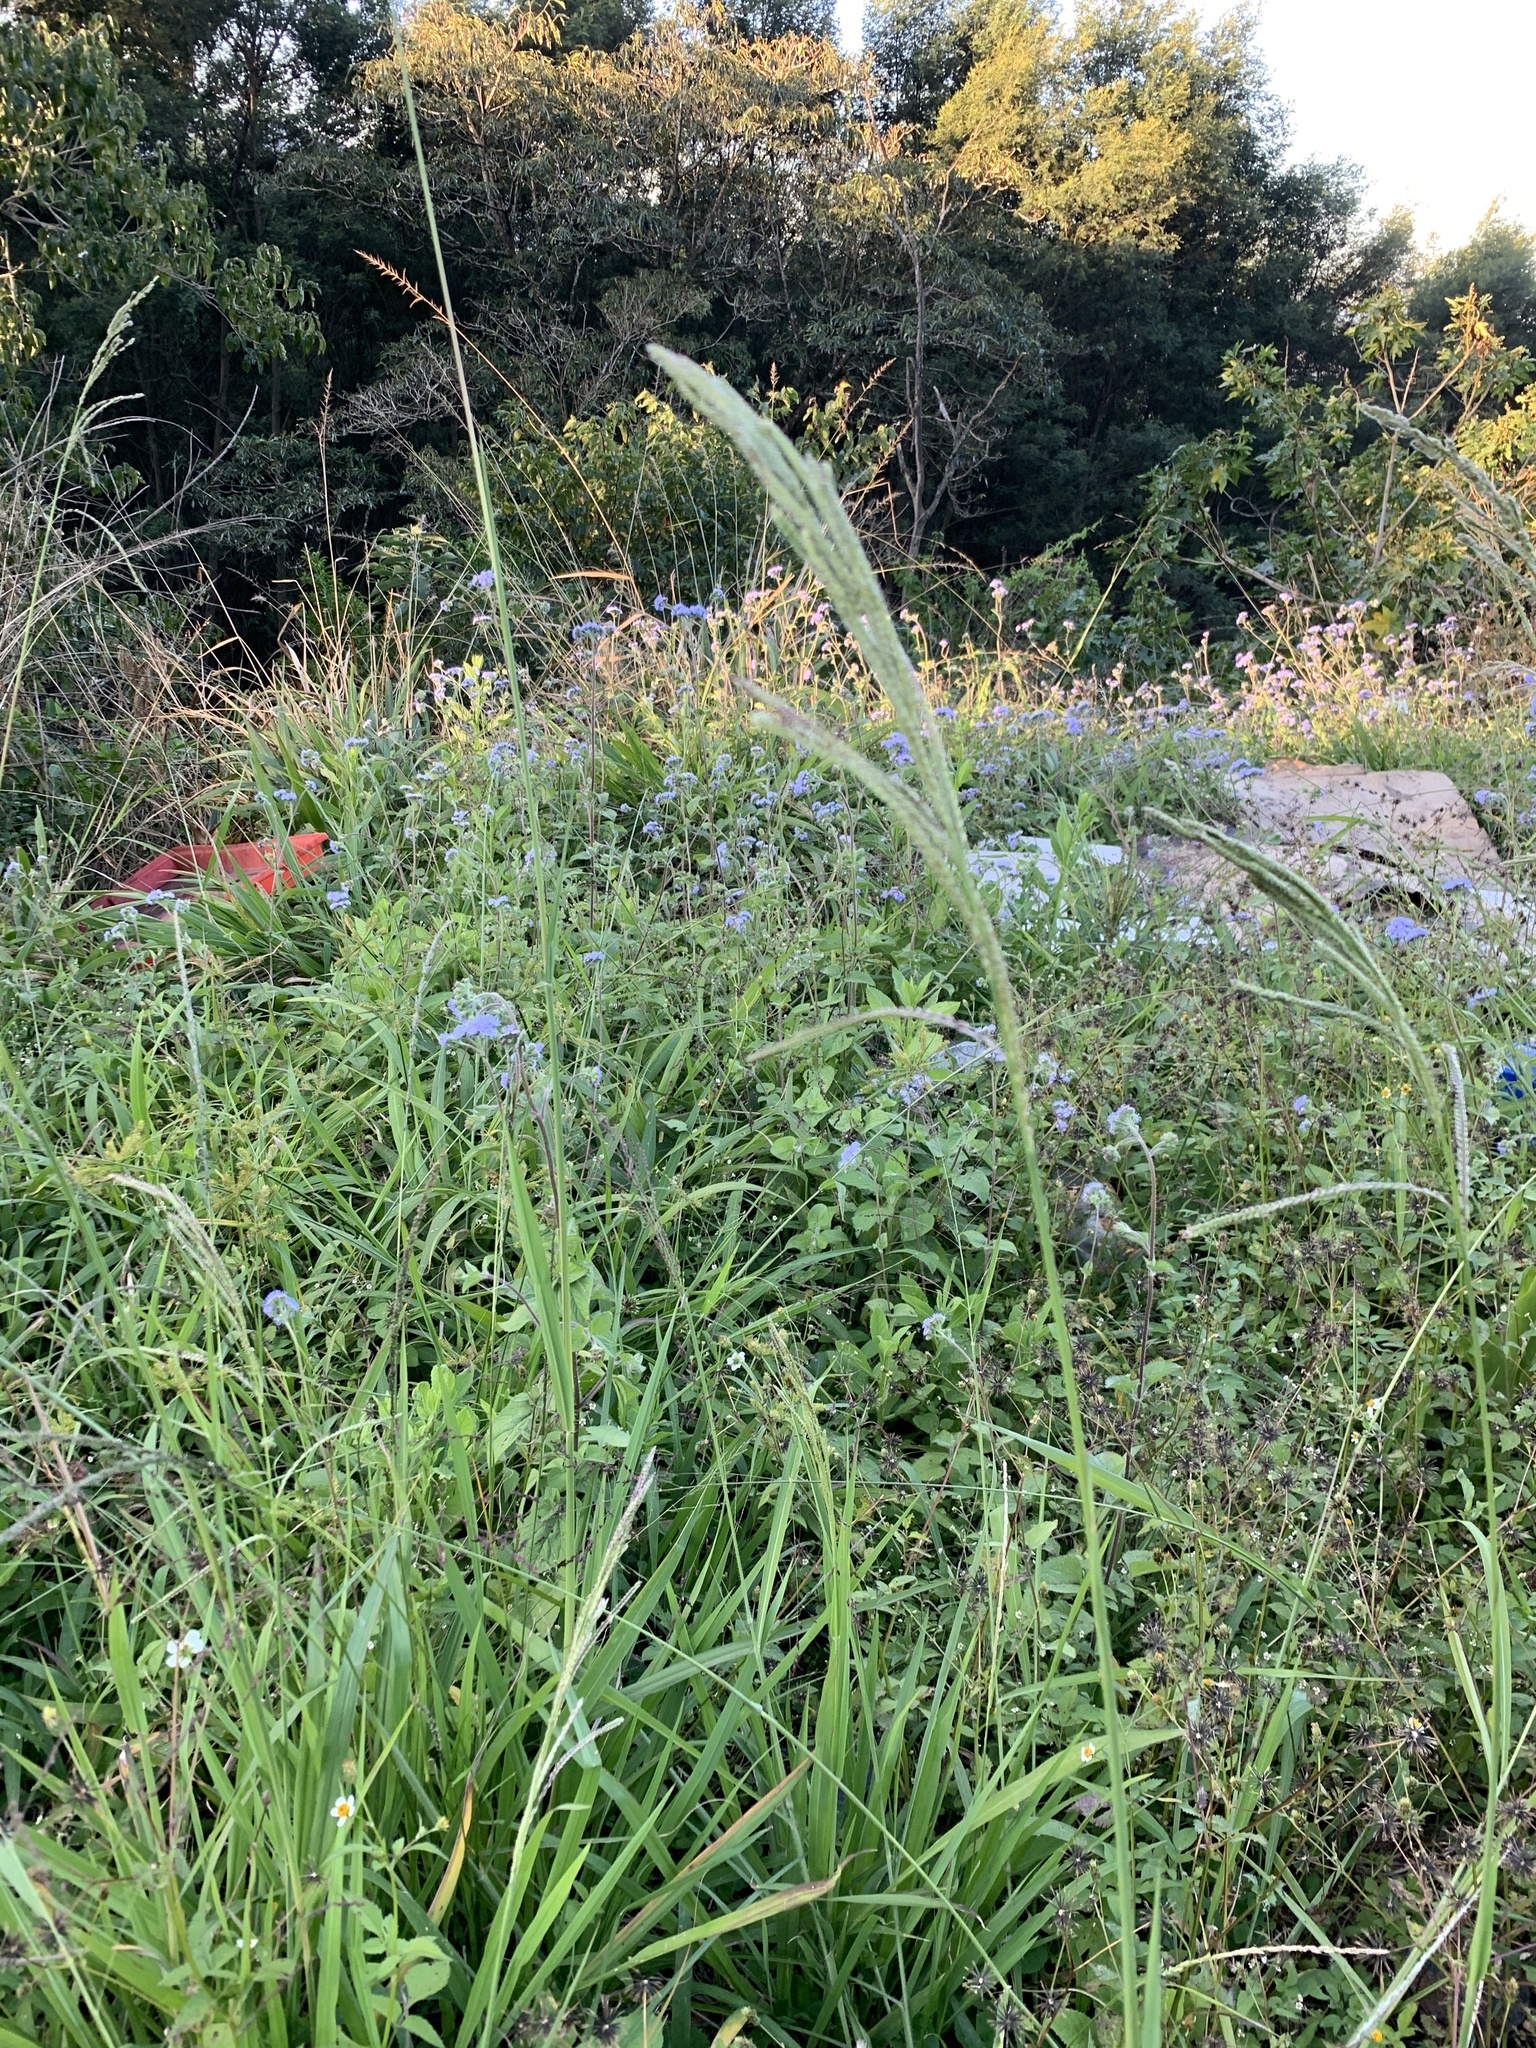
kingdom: Plantae
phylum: Tracheophyta
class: Liliopsida
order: Poales
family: Poaceae
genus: Paspalum
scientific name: Paspalum urvillei
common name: Vasey's grass
